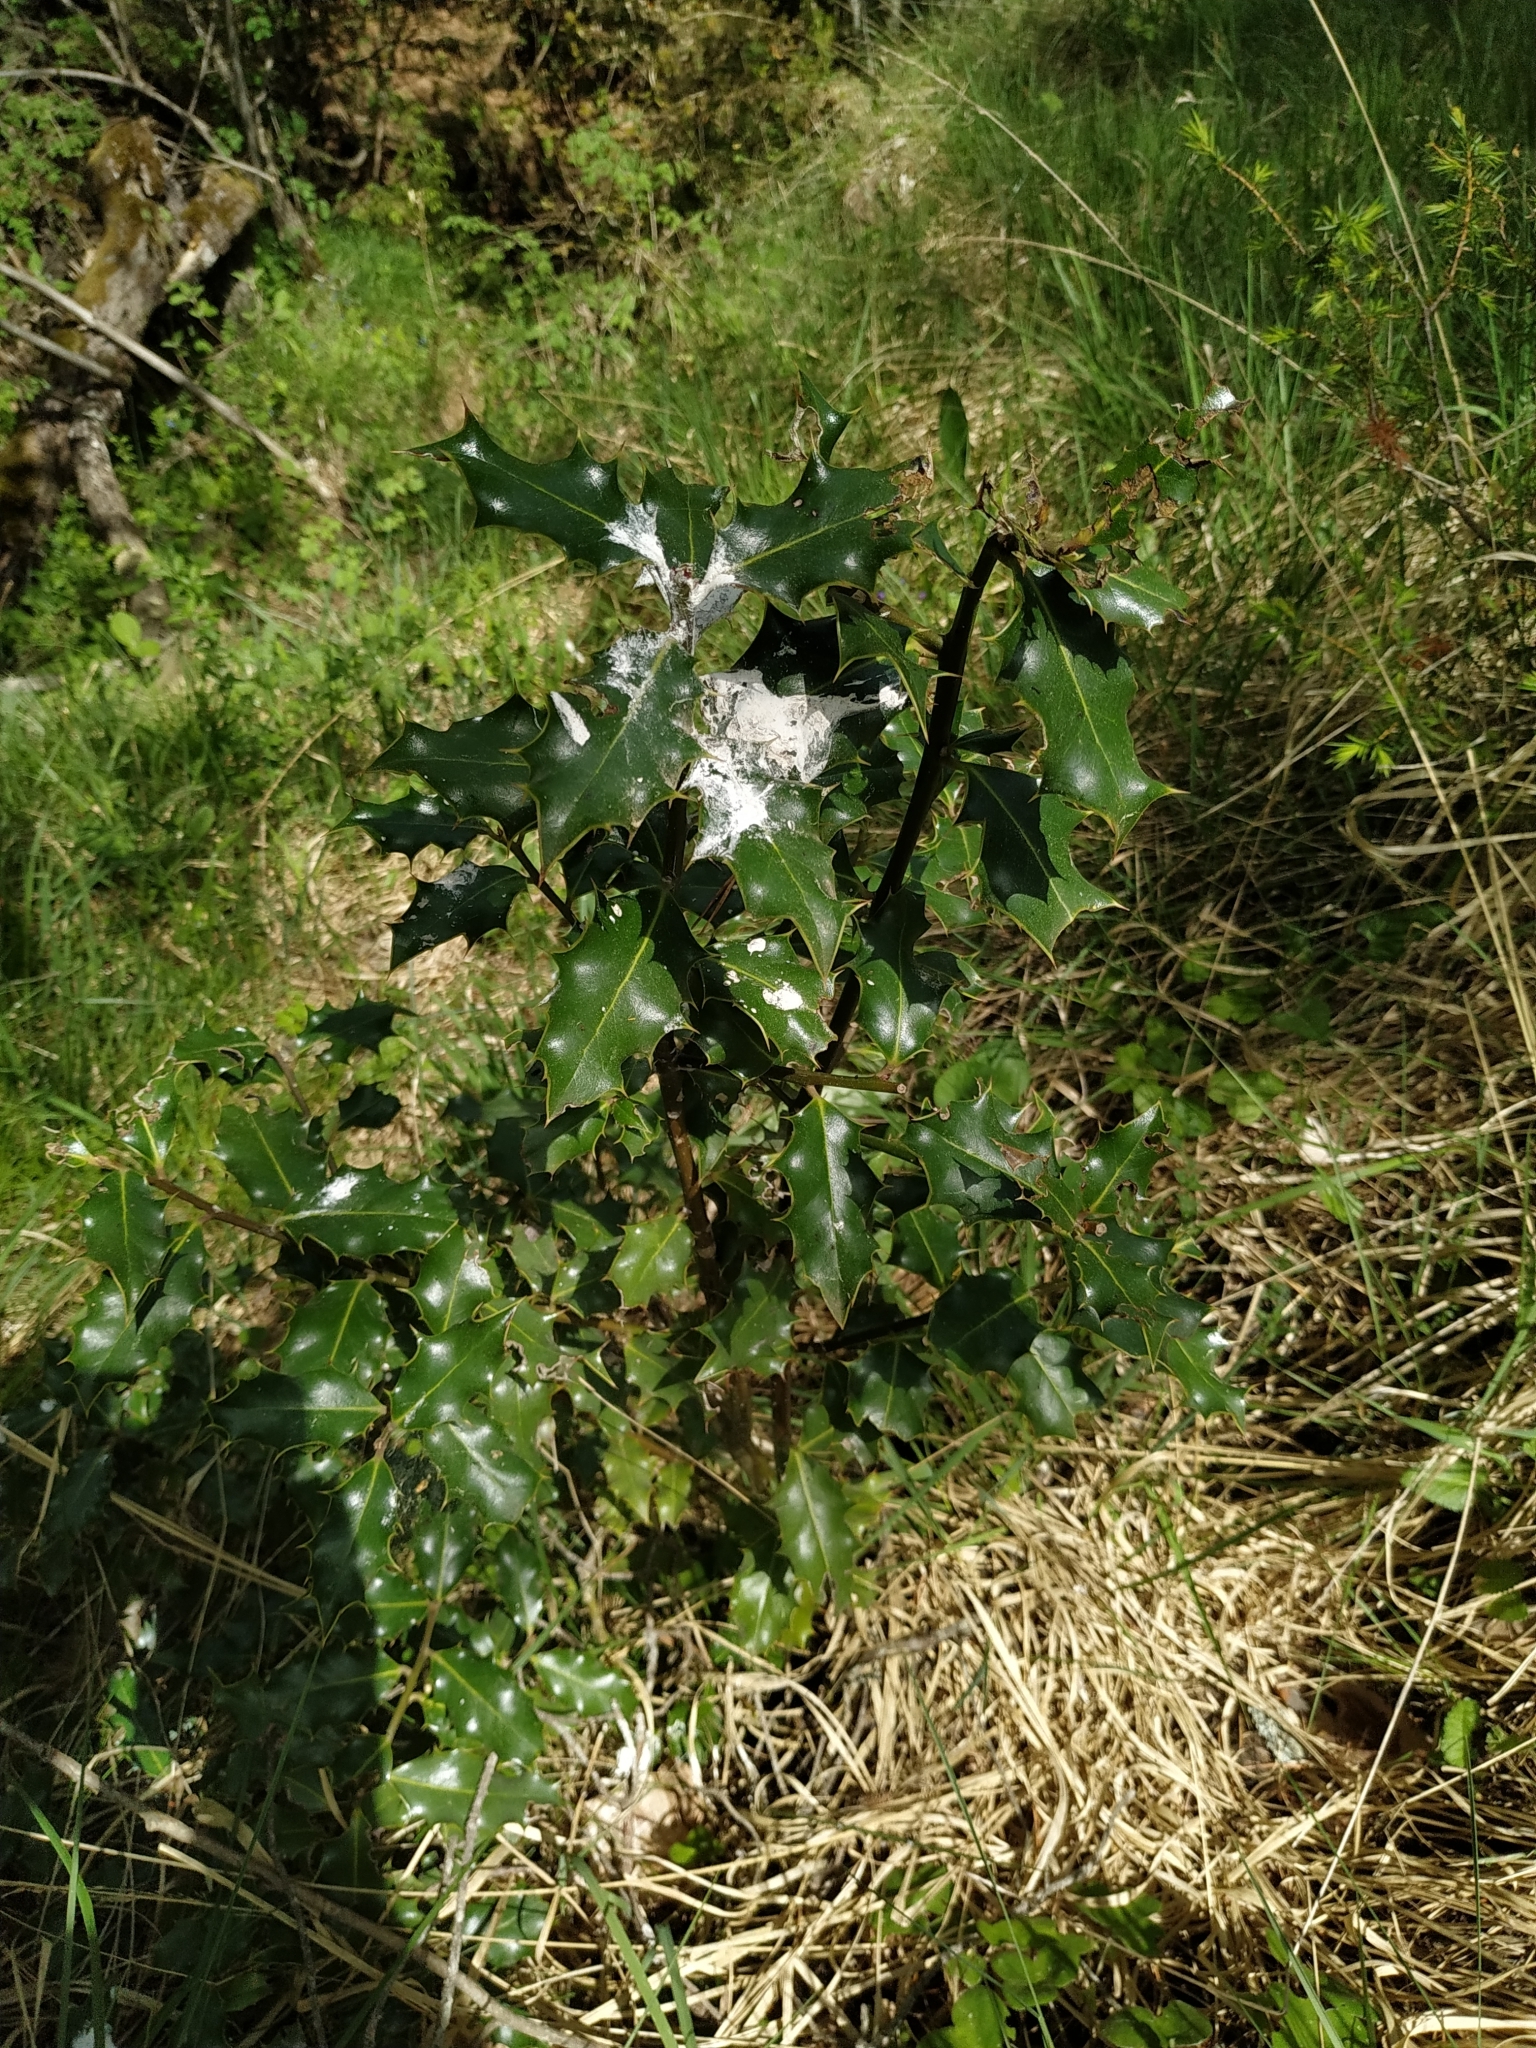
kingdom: Plantae
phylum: Tracheophyta
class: Magnoliopsida
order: Aquifoliales
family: Aquifoliaceae
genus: Ilex
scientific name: Ilex aquifolium
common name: English holly
